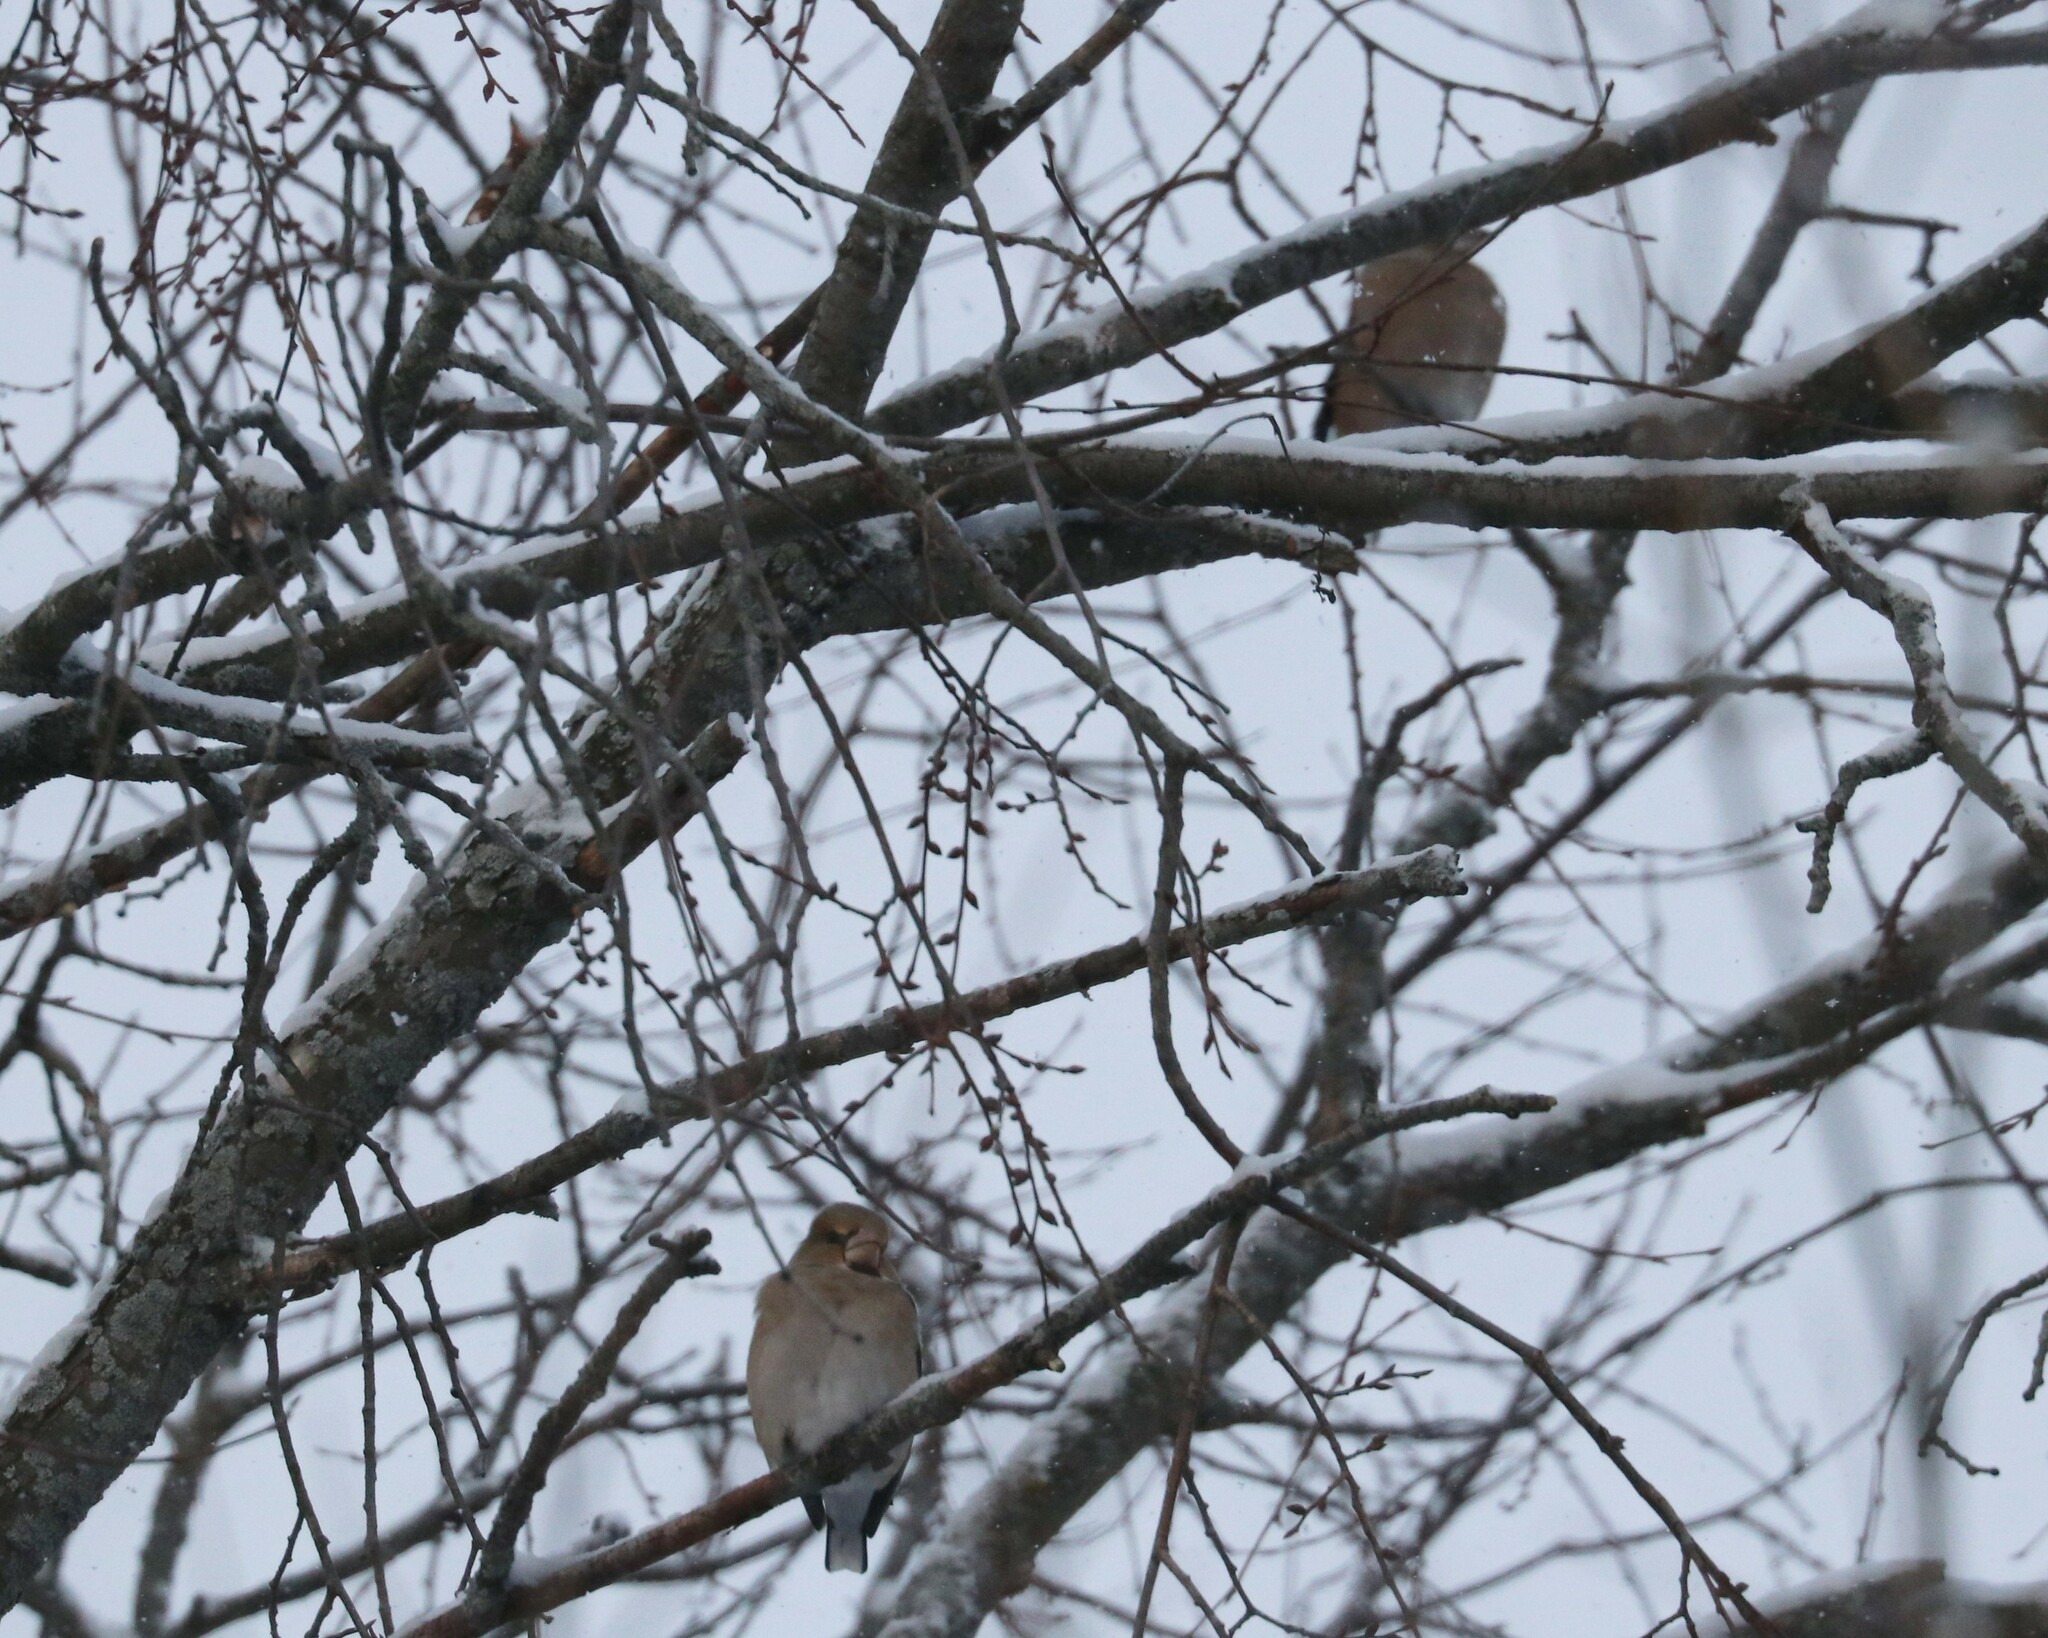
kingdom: Animalia
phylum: Chordata
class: Aves
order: Passeriformes
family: Fringillidae
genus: Coccothraustes
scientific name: Coccothraustes coccothraustes
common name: Hawfinch
